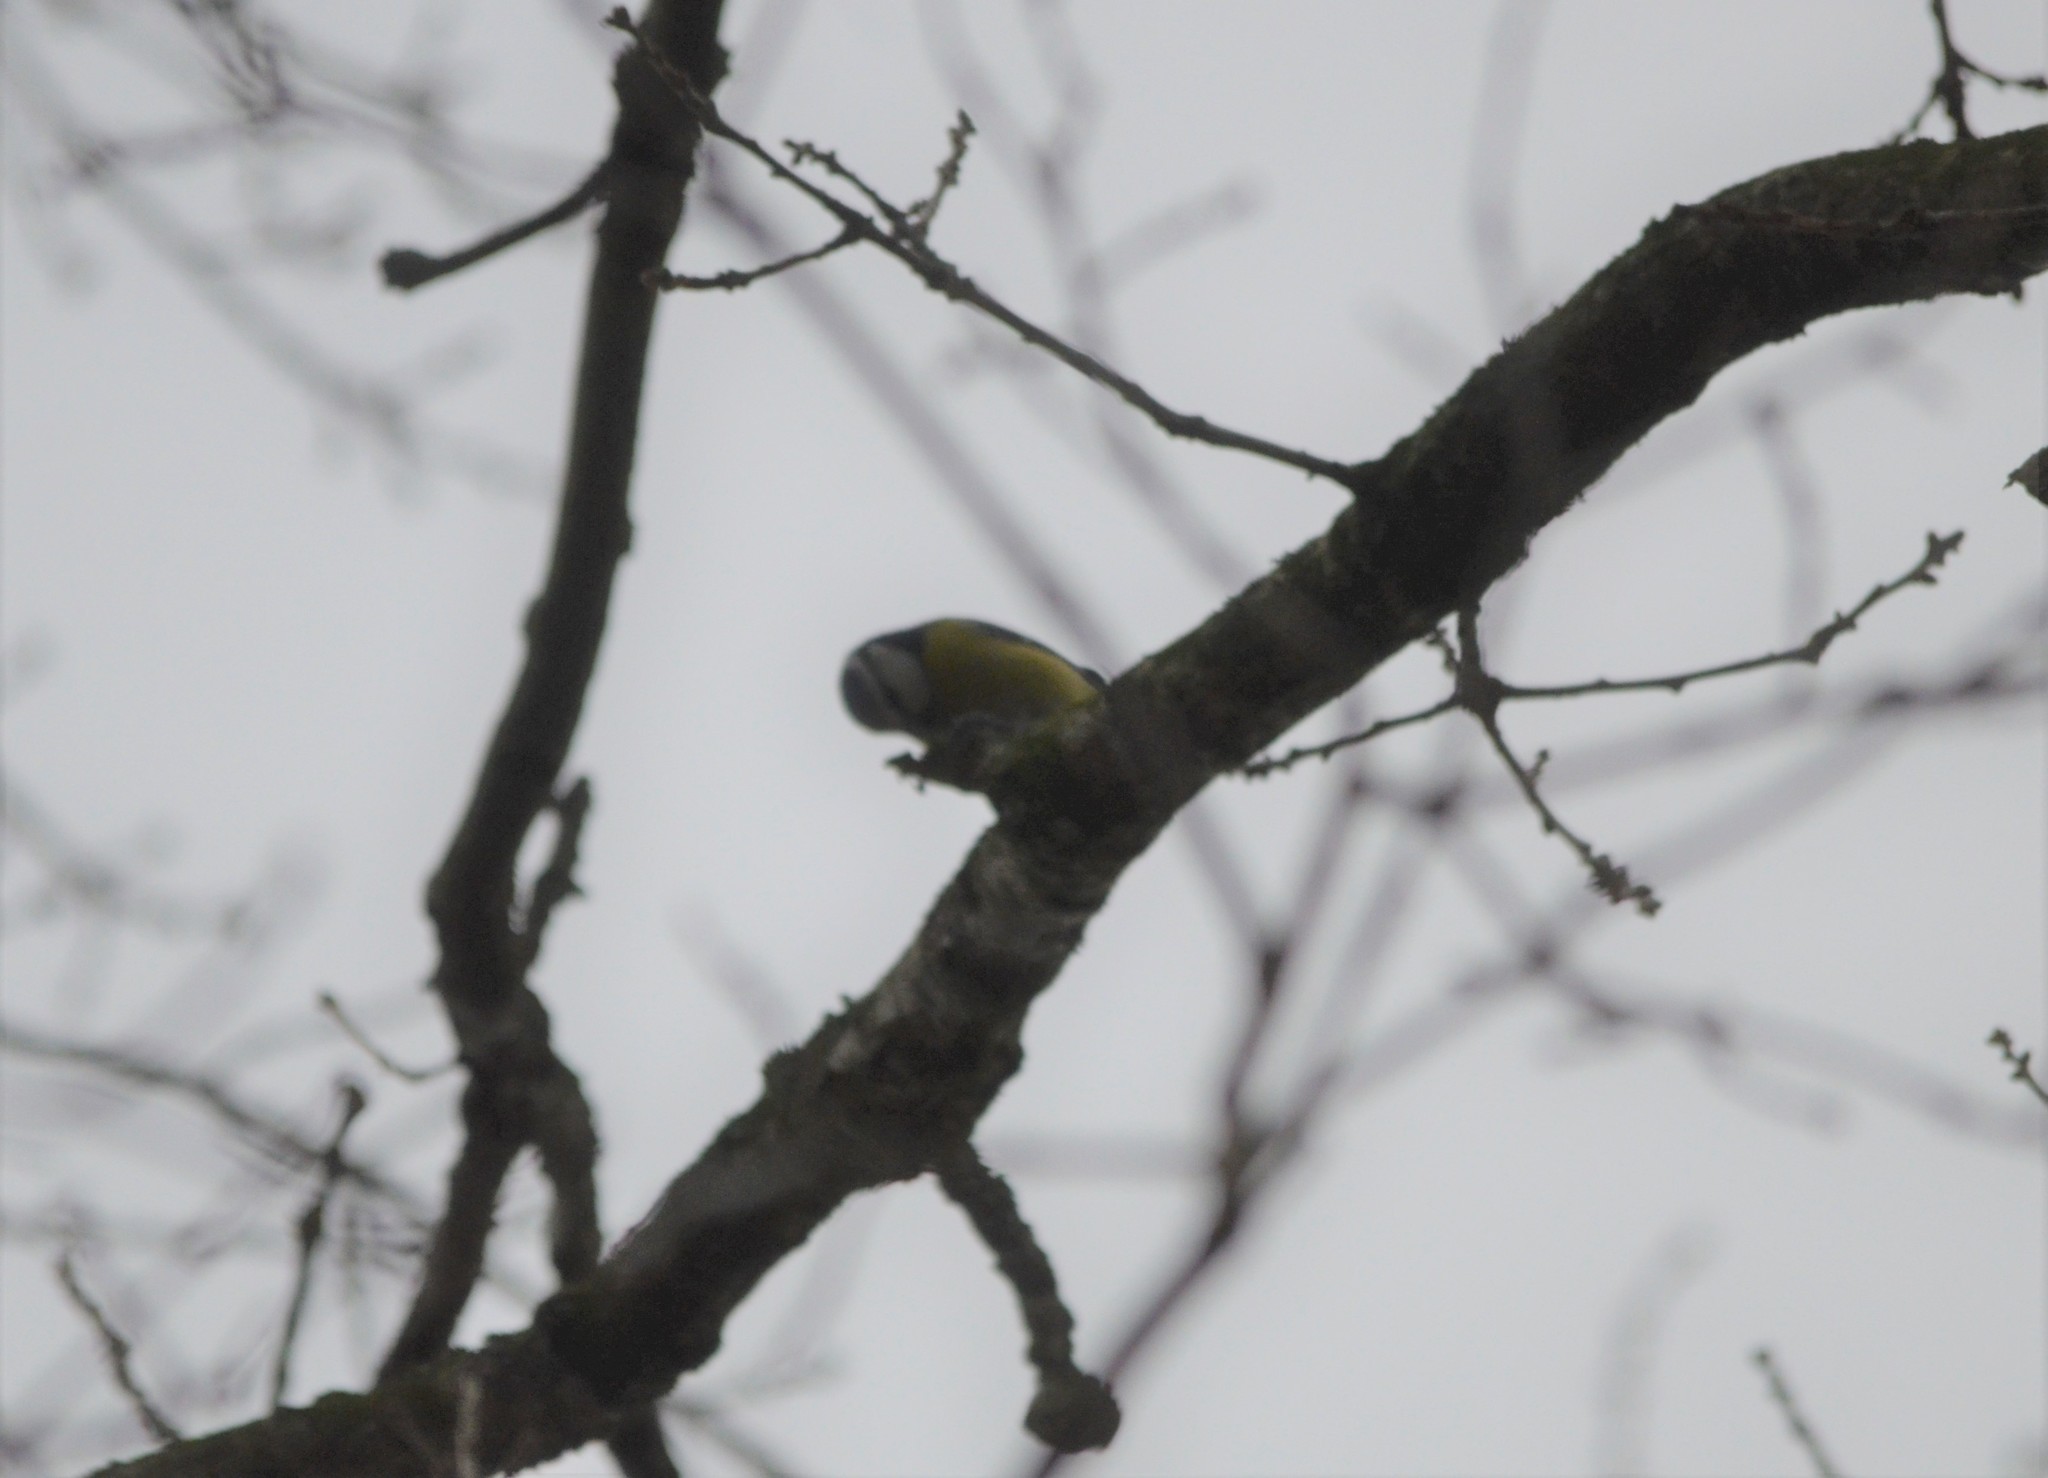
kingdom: Animalia
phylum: Chordata
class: Aves
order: Passeriformes
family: Paridae
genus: Cyanistes
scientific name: Cyanistes caeruleus
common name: Eurasian blue tit
